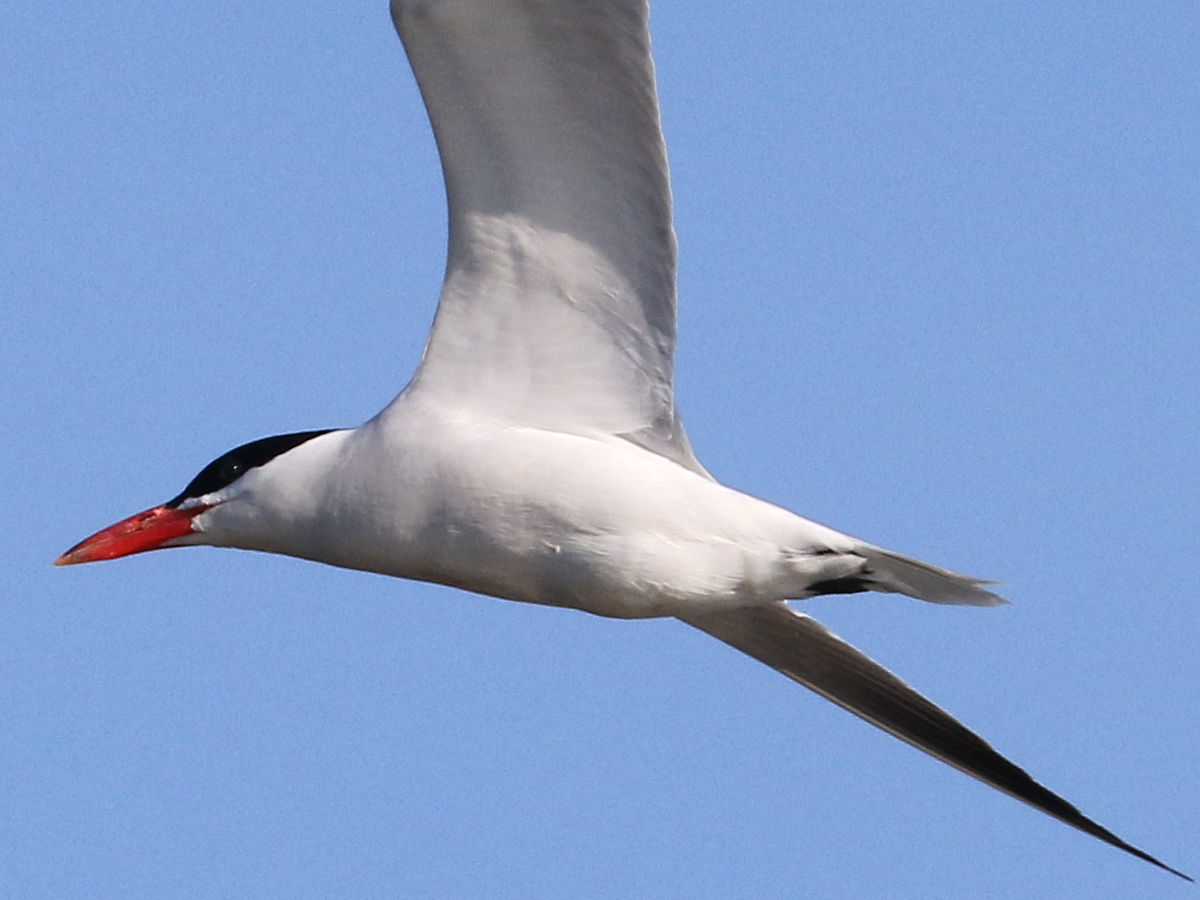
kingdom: Animalia
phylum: Chordata
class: Aves
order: Charadriiformes
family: Laridae
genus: Hydroprogne
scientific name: Hydroprogne caspia
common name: Caspian tern
